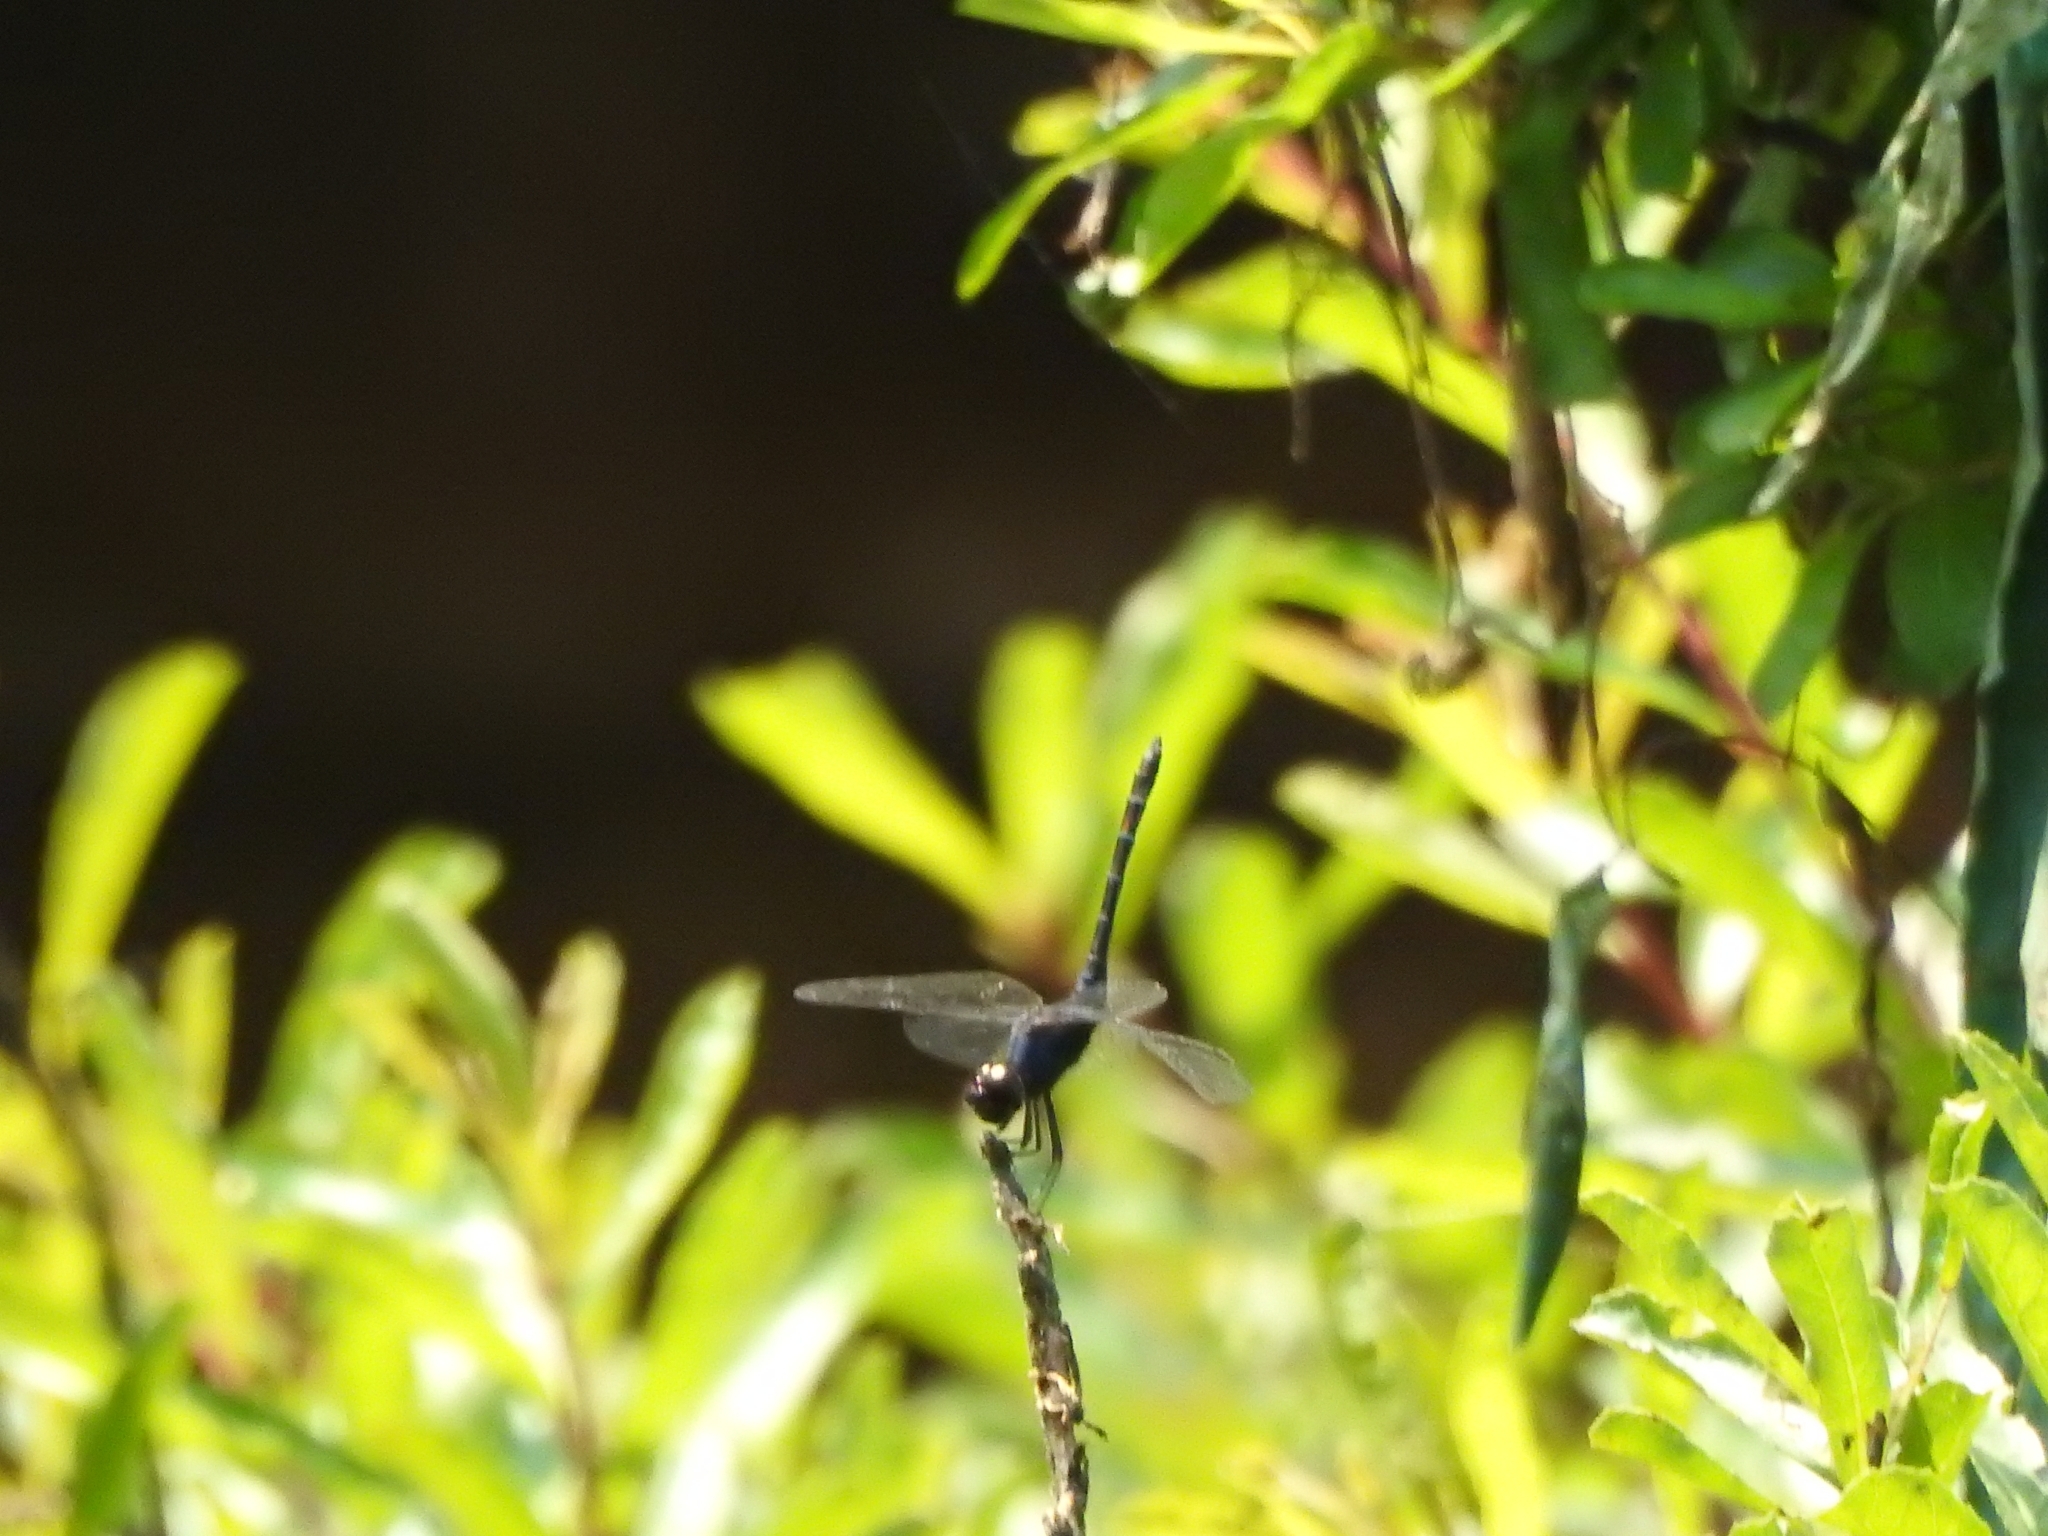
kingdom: Animalia
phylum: Arthropoda
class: Insecta
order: Odonata
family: Libellulidae
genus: Trithemis
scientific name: Trithemis festiva
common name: Indigo dropwing
